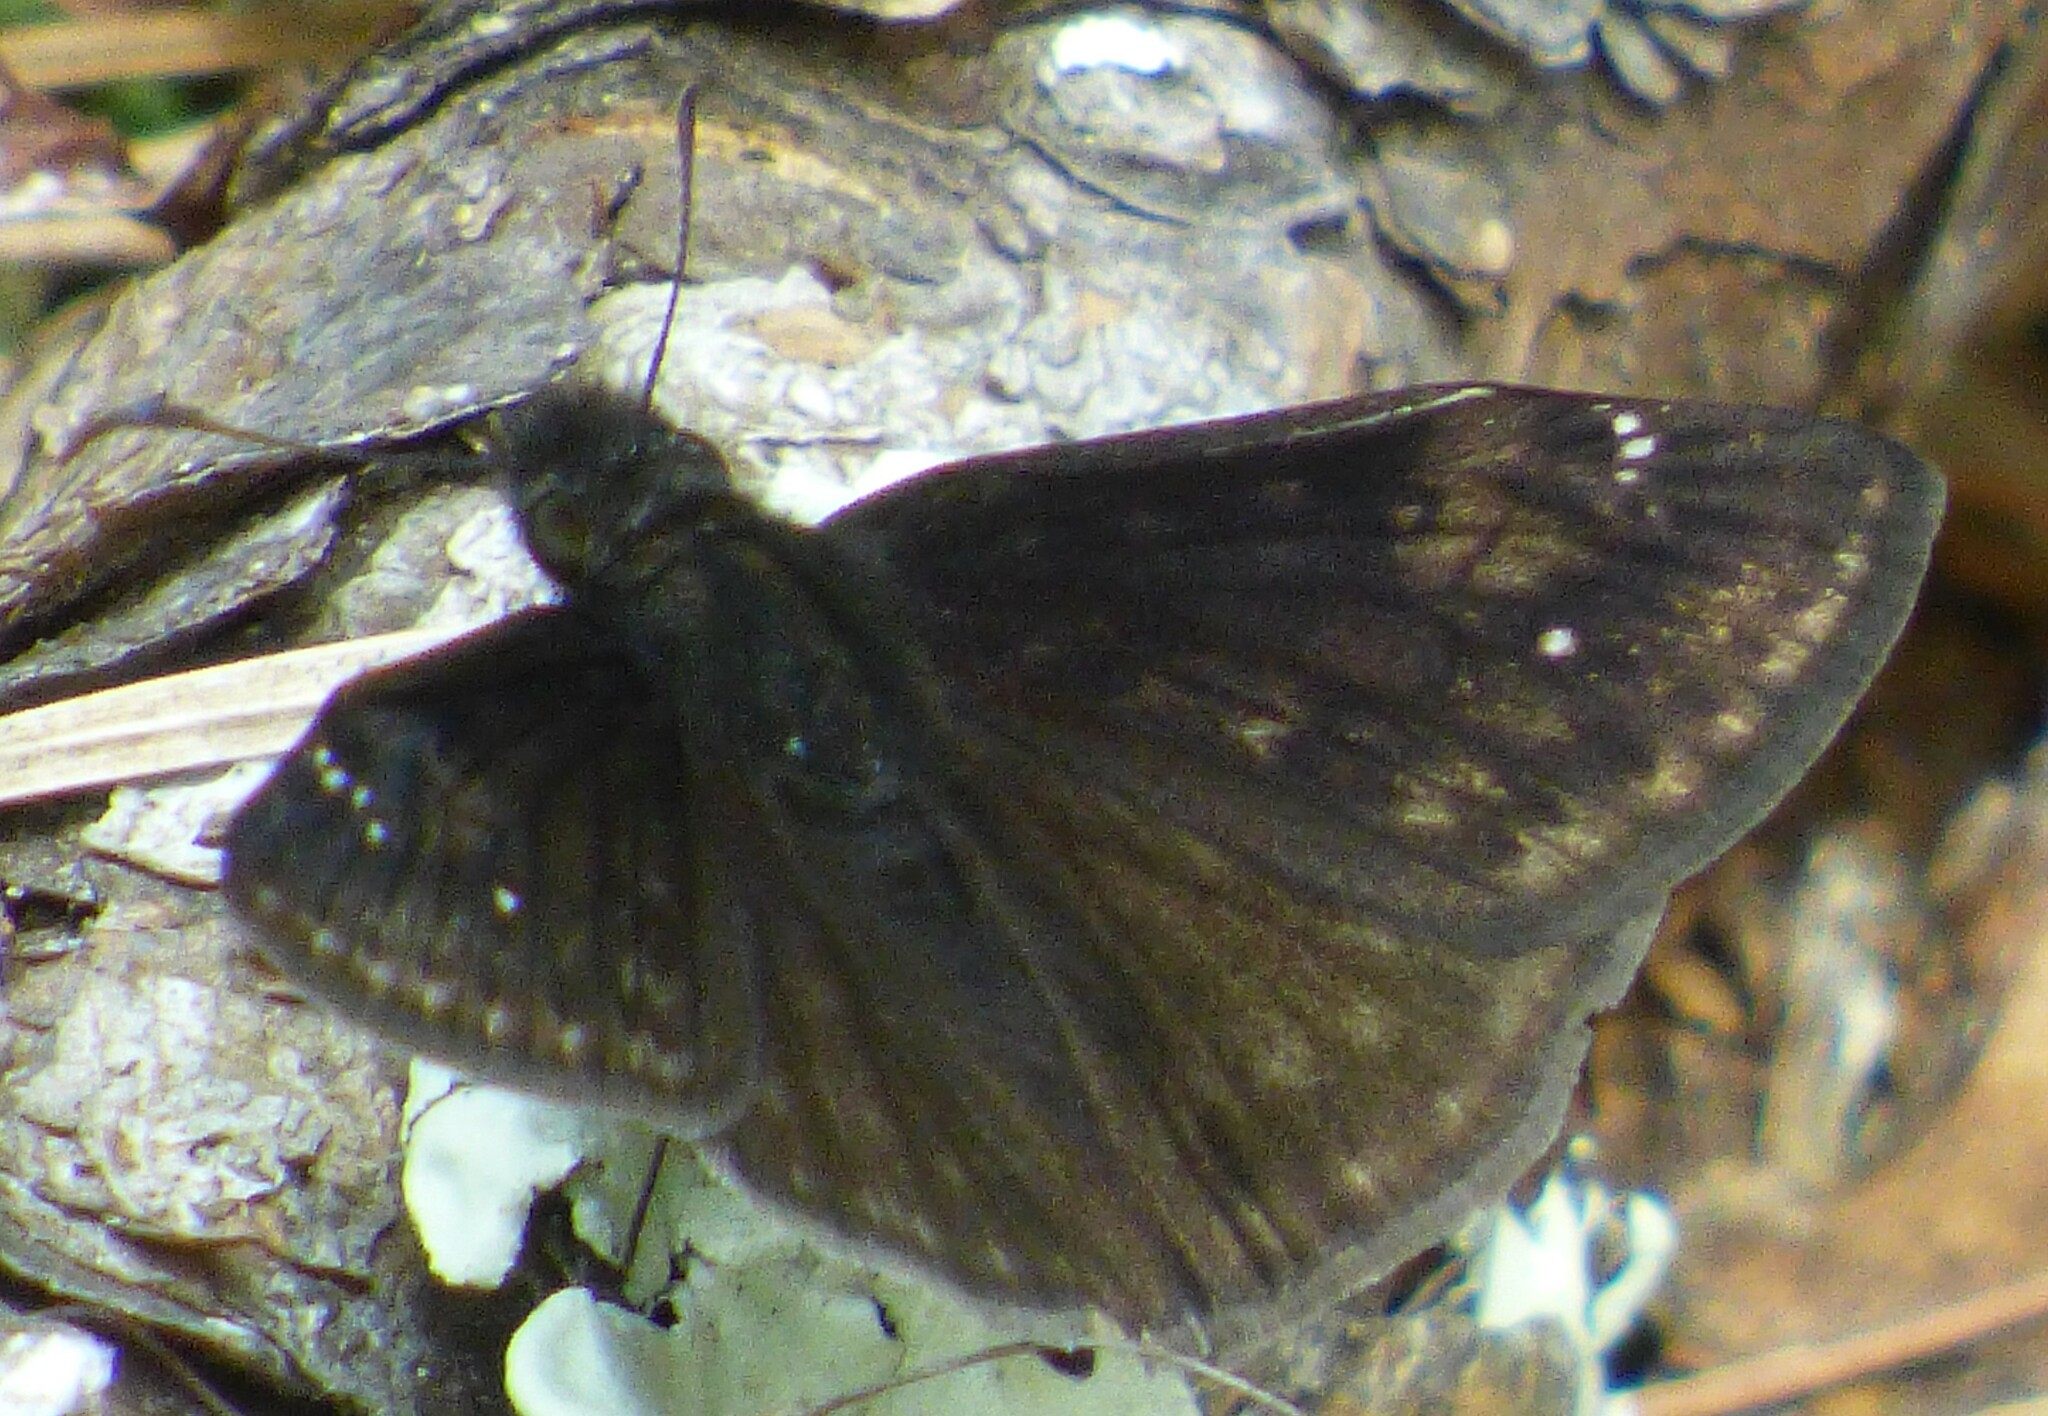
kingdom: Animalia
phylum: Arthropoda
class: Insecta
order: Lepidoptera
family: Hesperiidae
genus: Erynnis
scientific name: Erynnis zarucco
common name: Zarucco duskywing
